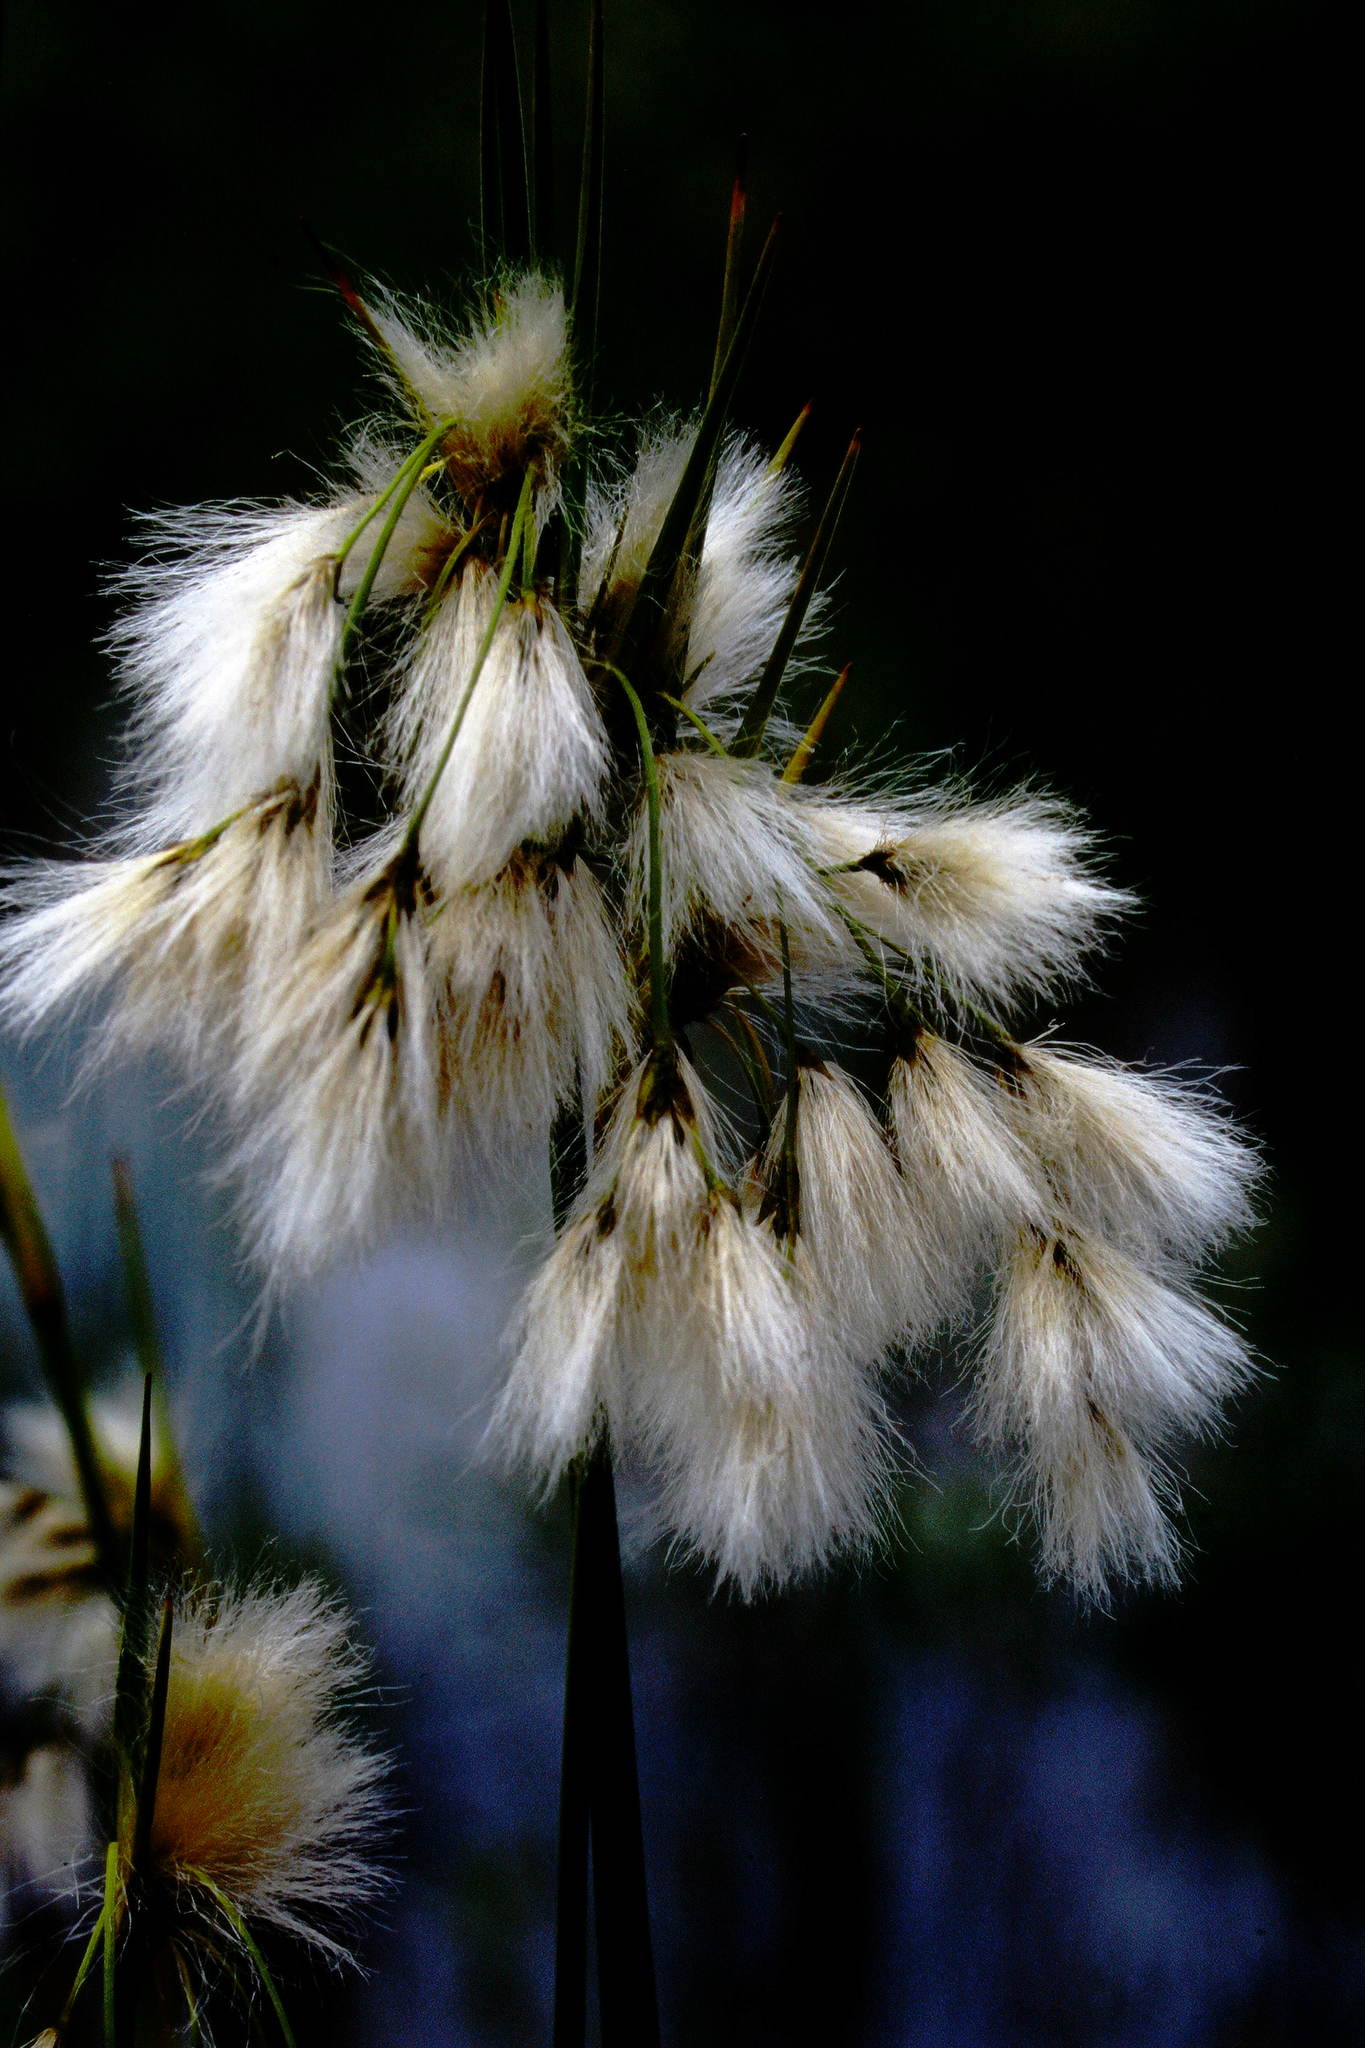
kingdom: Plantae
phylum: Tracheophyta
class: Liliopsida
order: Poales
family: Cyperaceae
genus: Eriophorum
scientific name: Eriophorum viridicarinatum
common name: Green-keeled cottongrass
